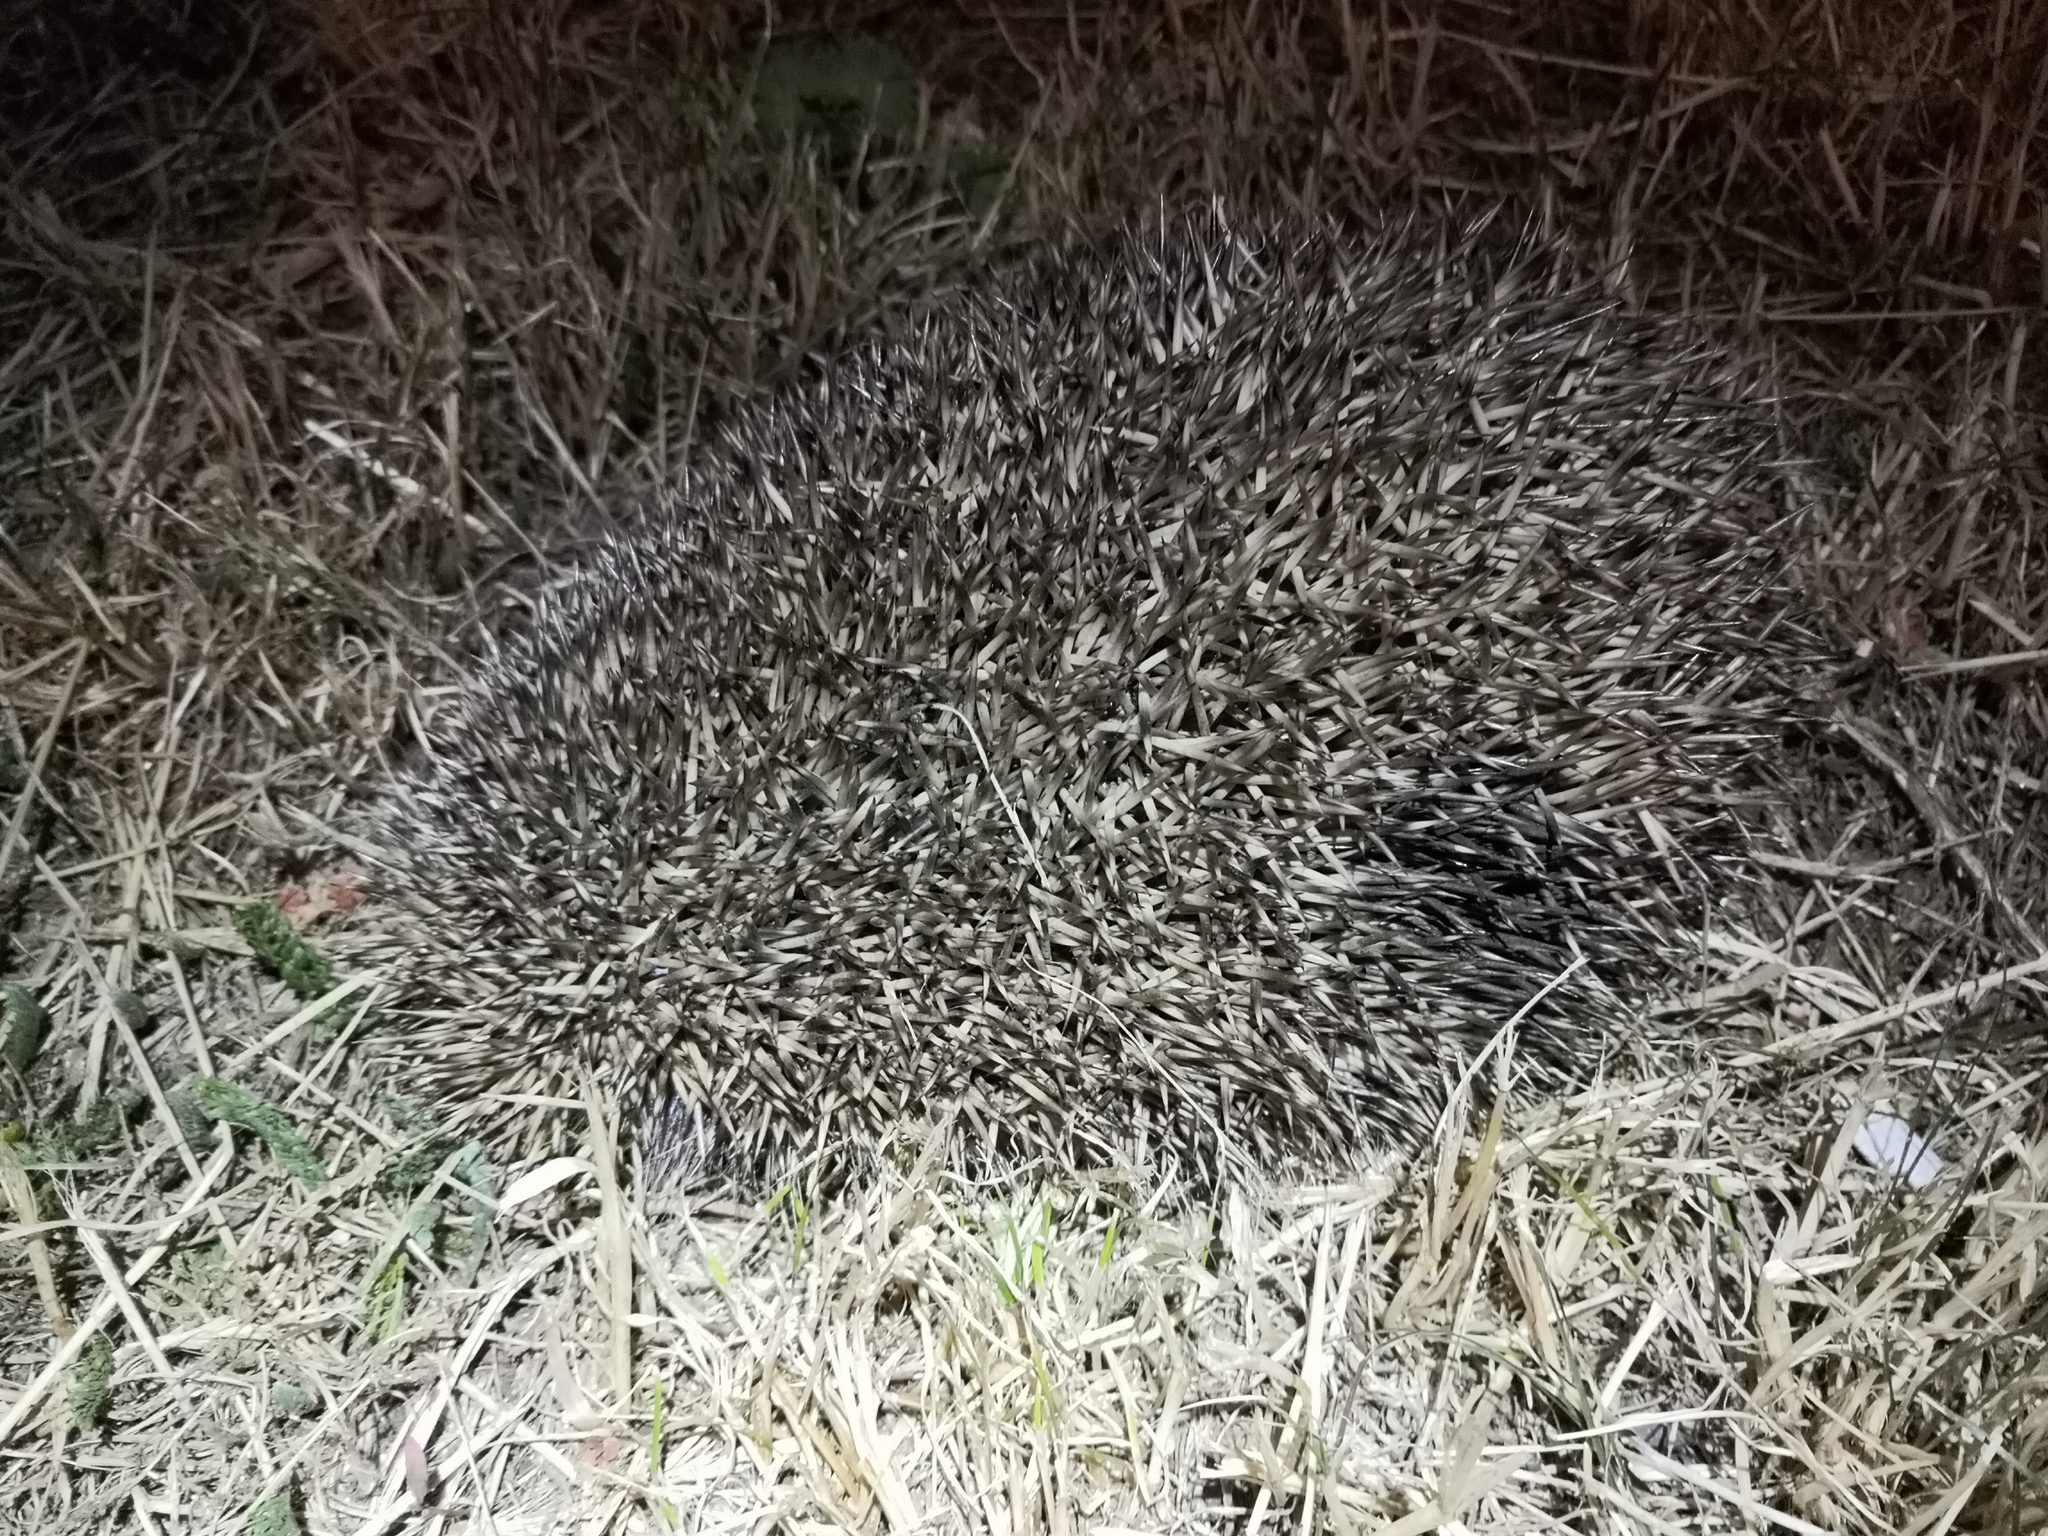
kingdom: Animalia
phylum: Chordata
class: Mammalia
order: Erinaceomorpha
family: Erinaceidae
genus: Erinaceus
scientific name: Erinaceus roumanicus
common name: Northern white-breasted hedgehog
